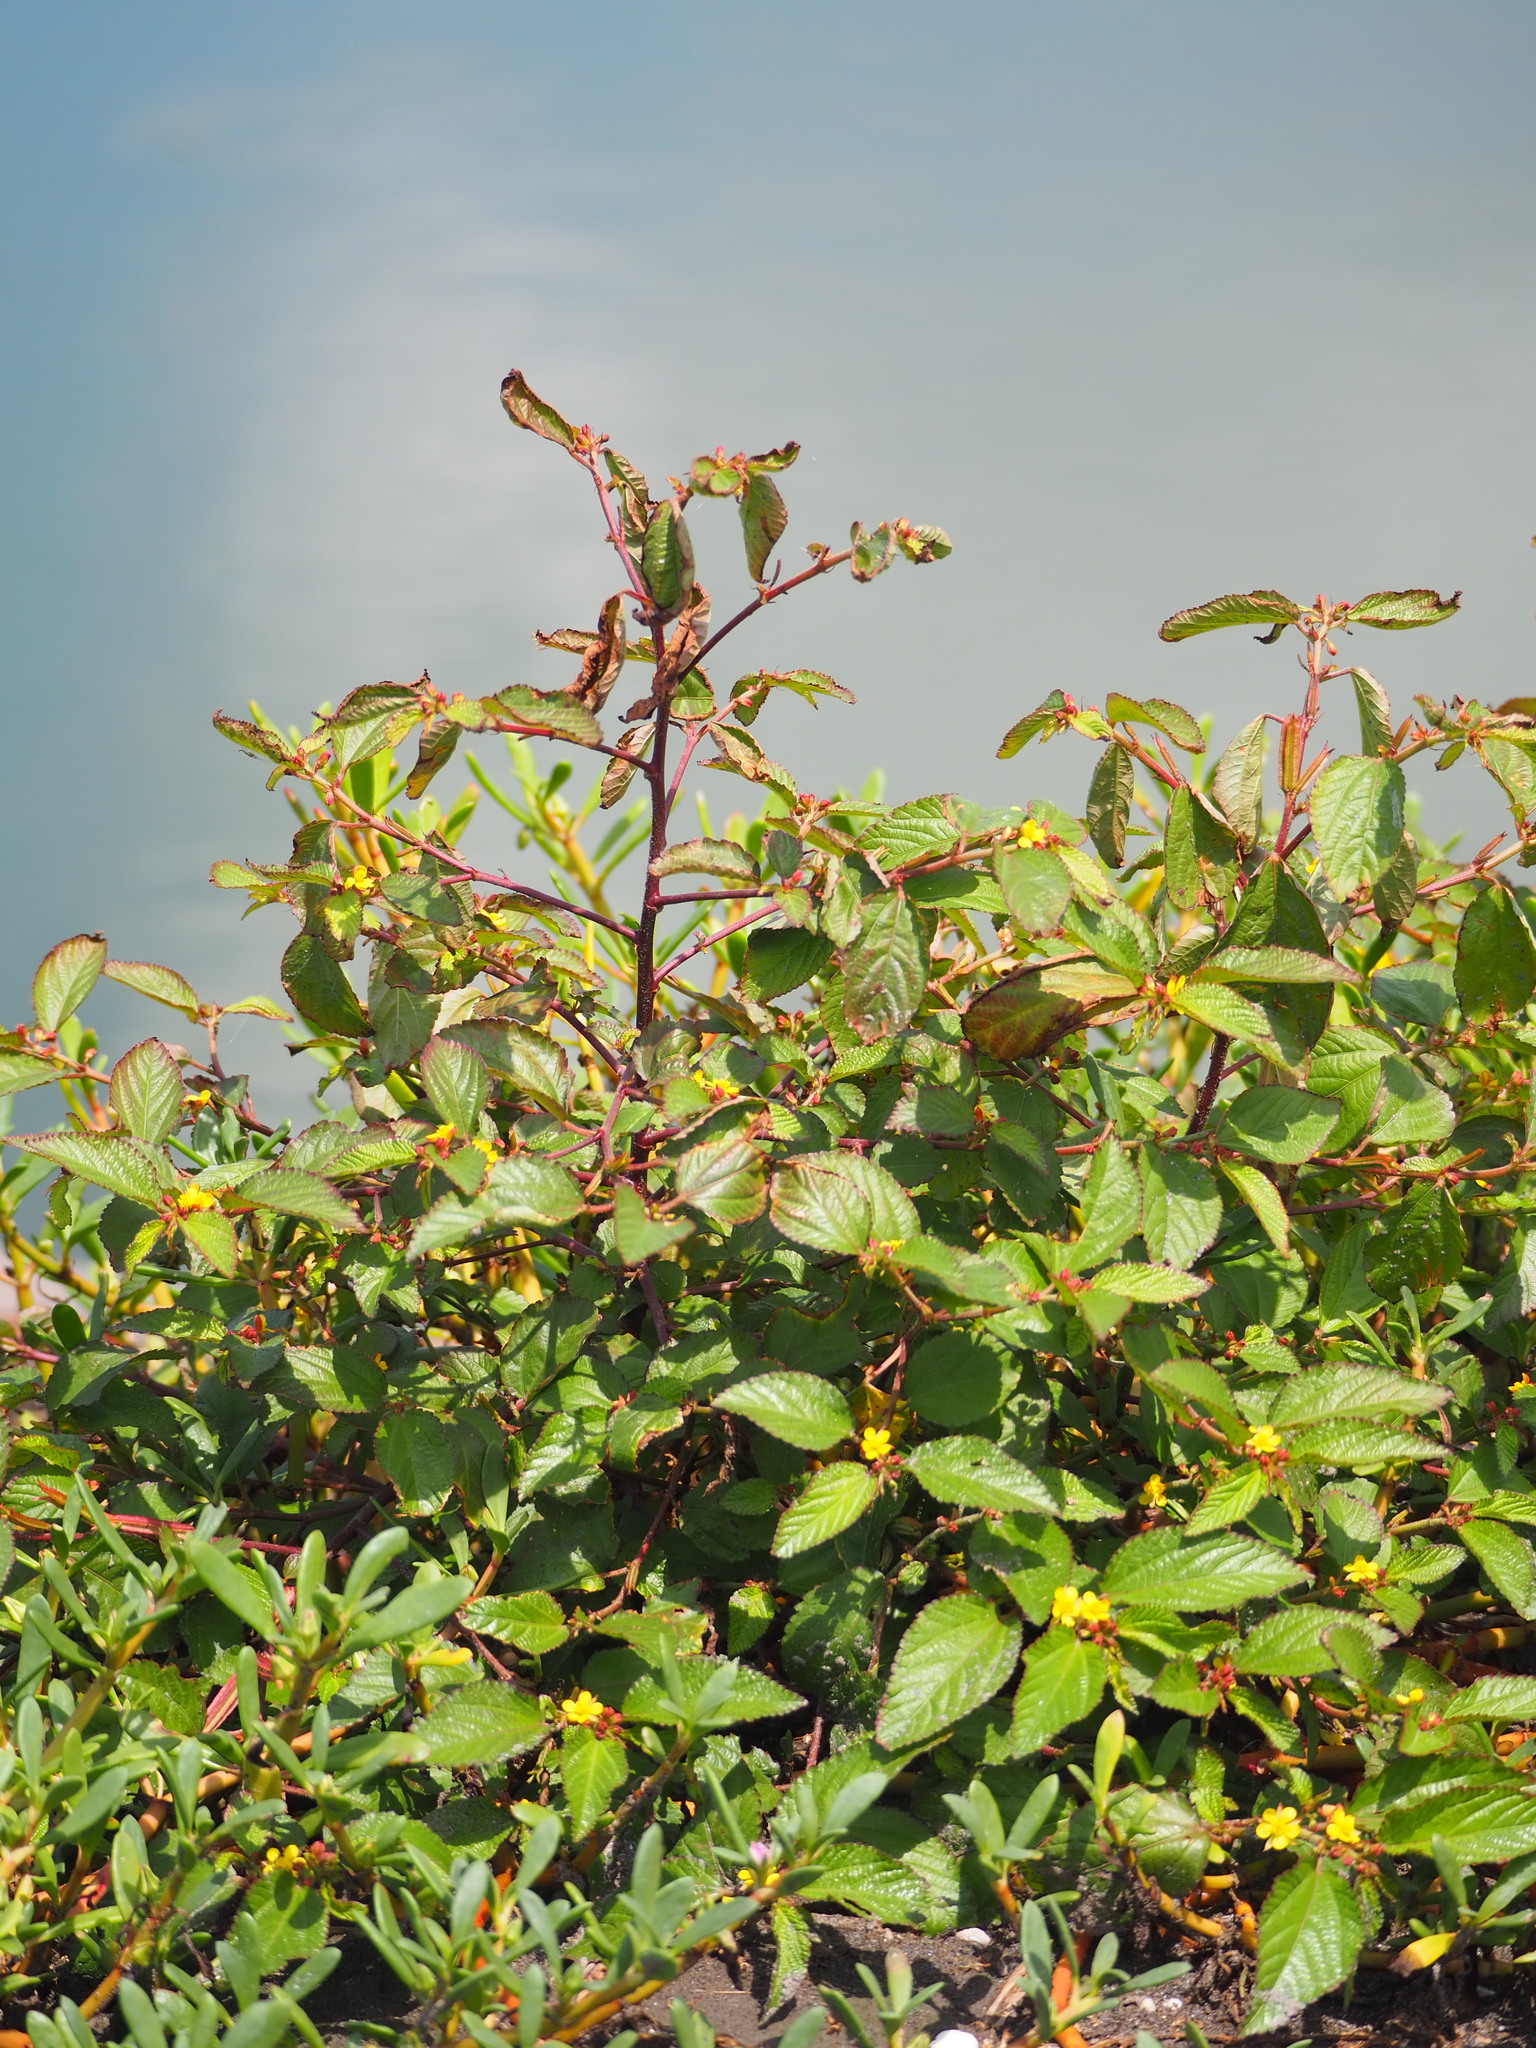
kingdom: Plantae
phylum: Tracheophyta
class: Magnoliopsida
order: Malvales
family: Malvaceae
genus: Corchorus
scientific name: Corchorus aestuans
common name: Jute
